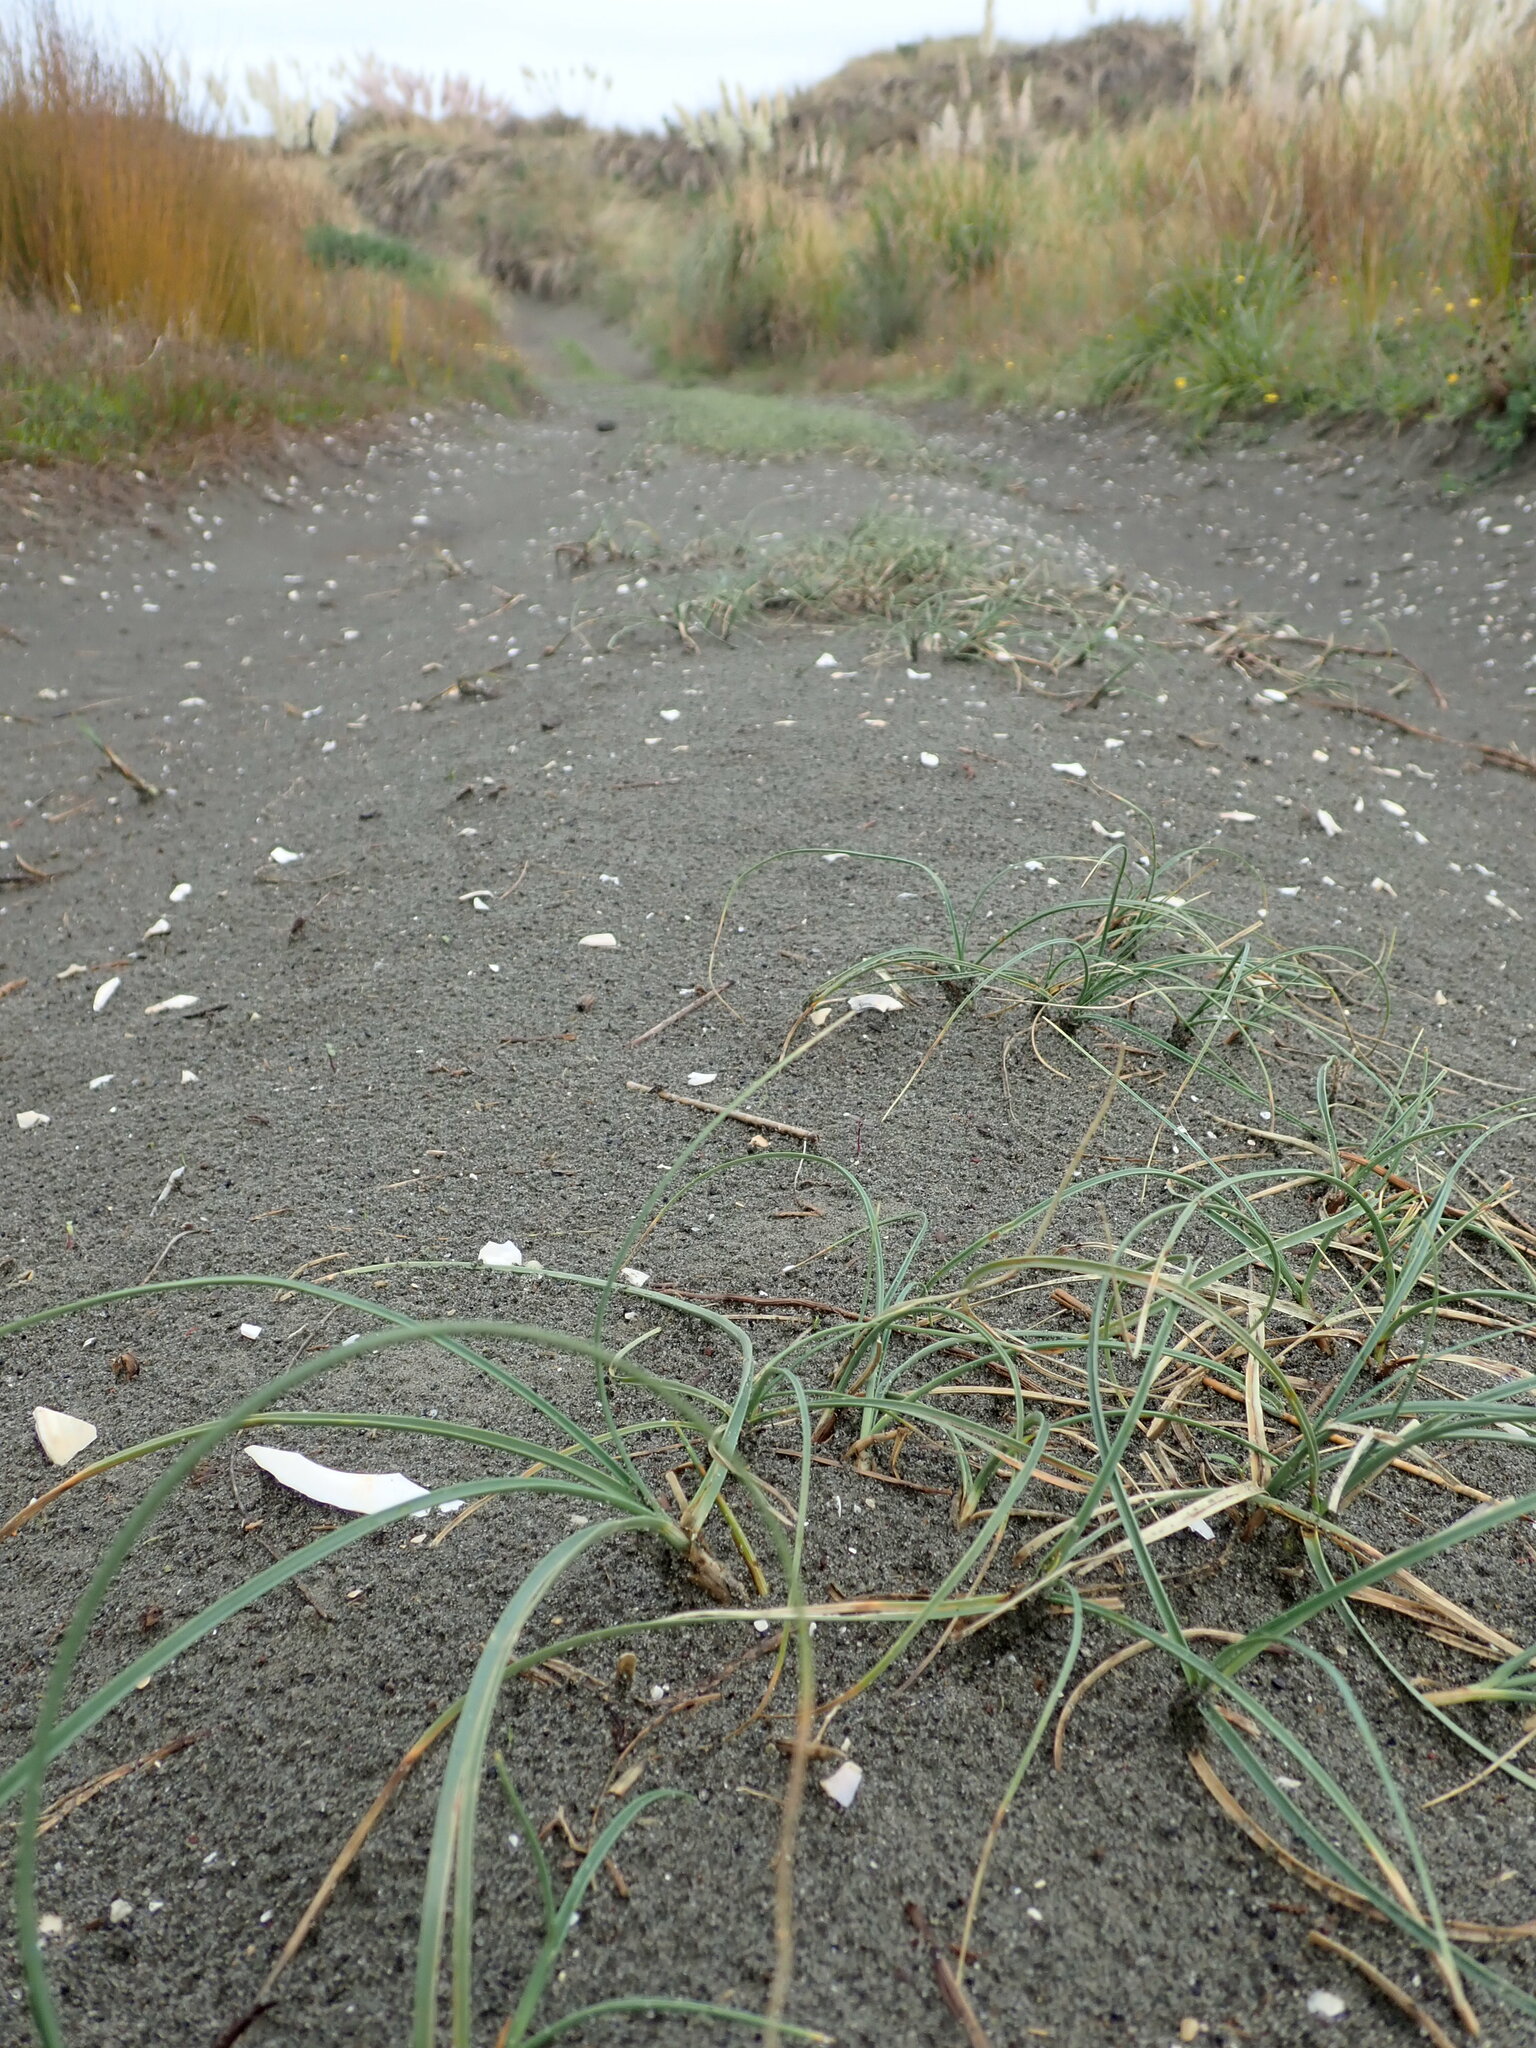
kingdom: Plantae
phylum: Tracheophyta
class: Liliopsida
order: Poales
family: Cyperaceae
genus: Carex
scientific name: Carex pumila
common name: Dwarf sedge
